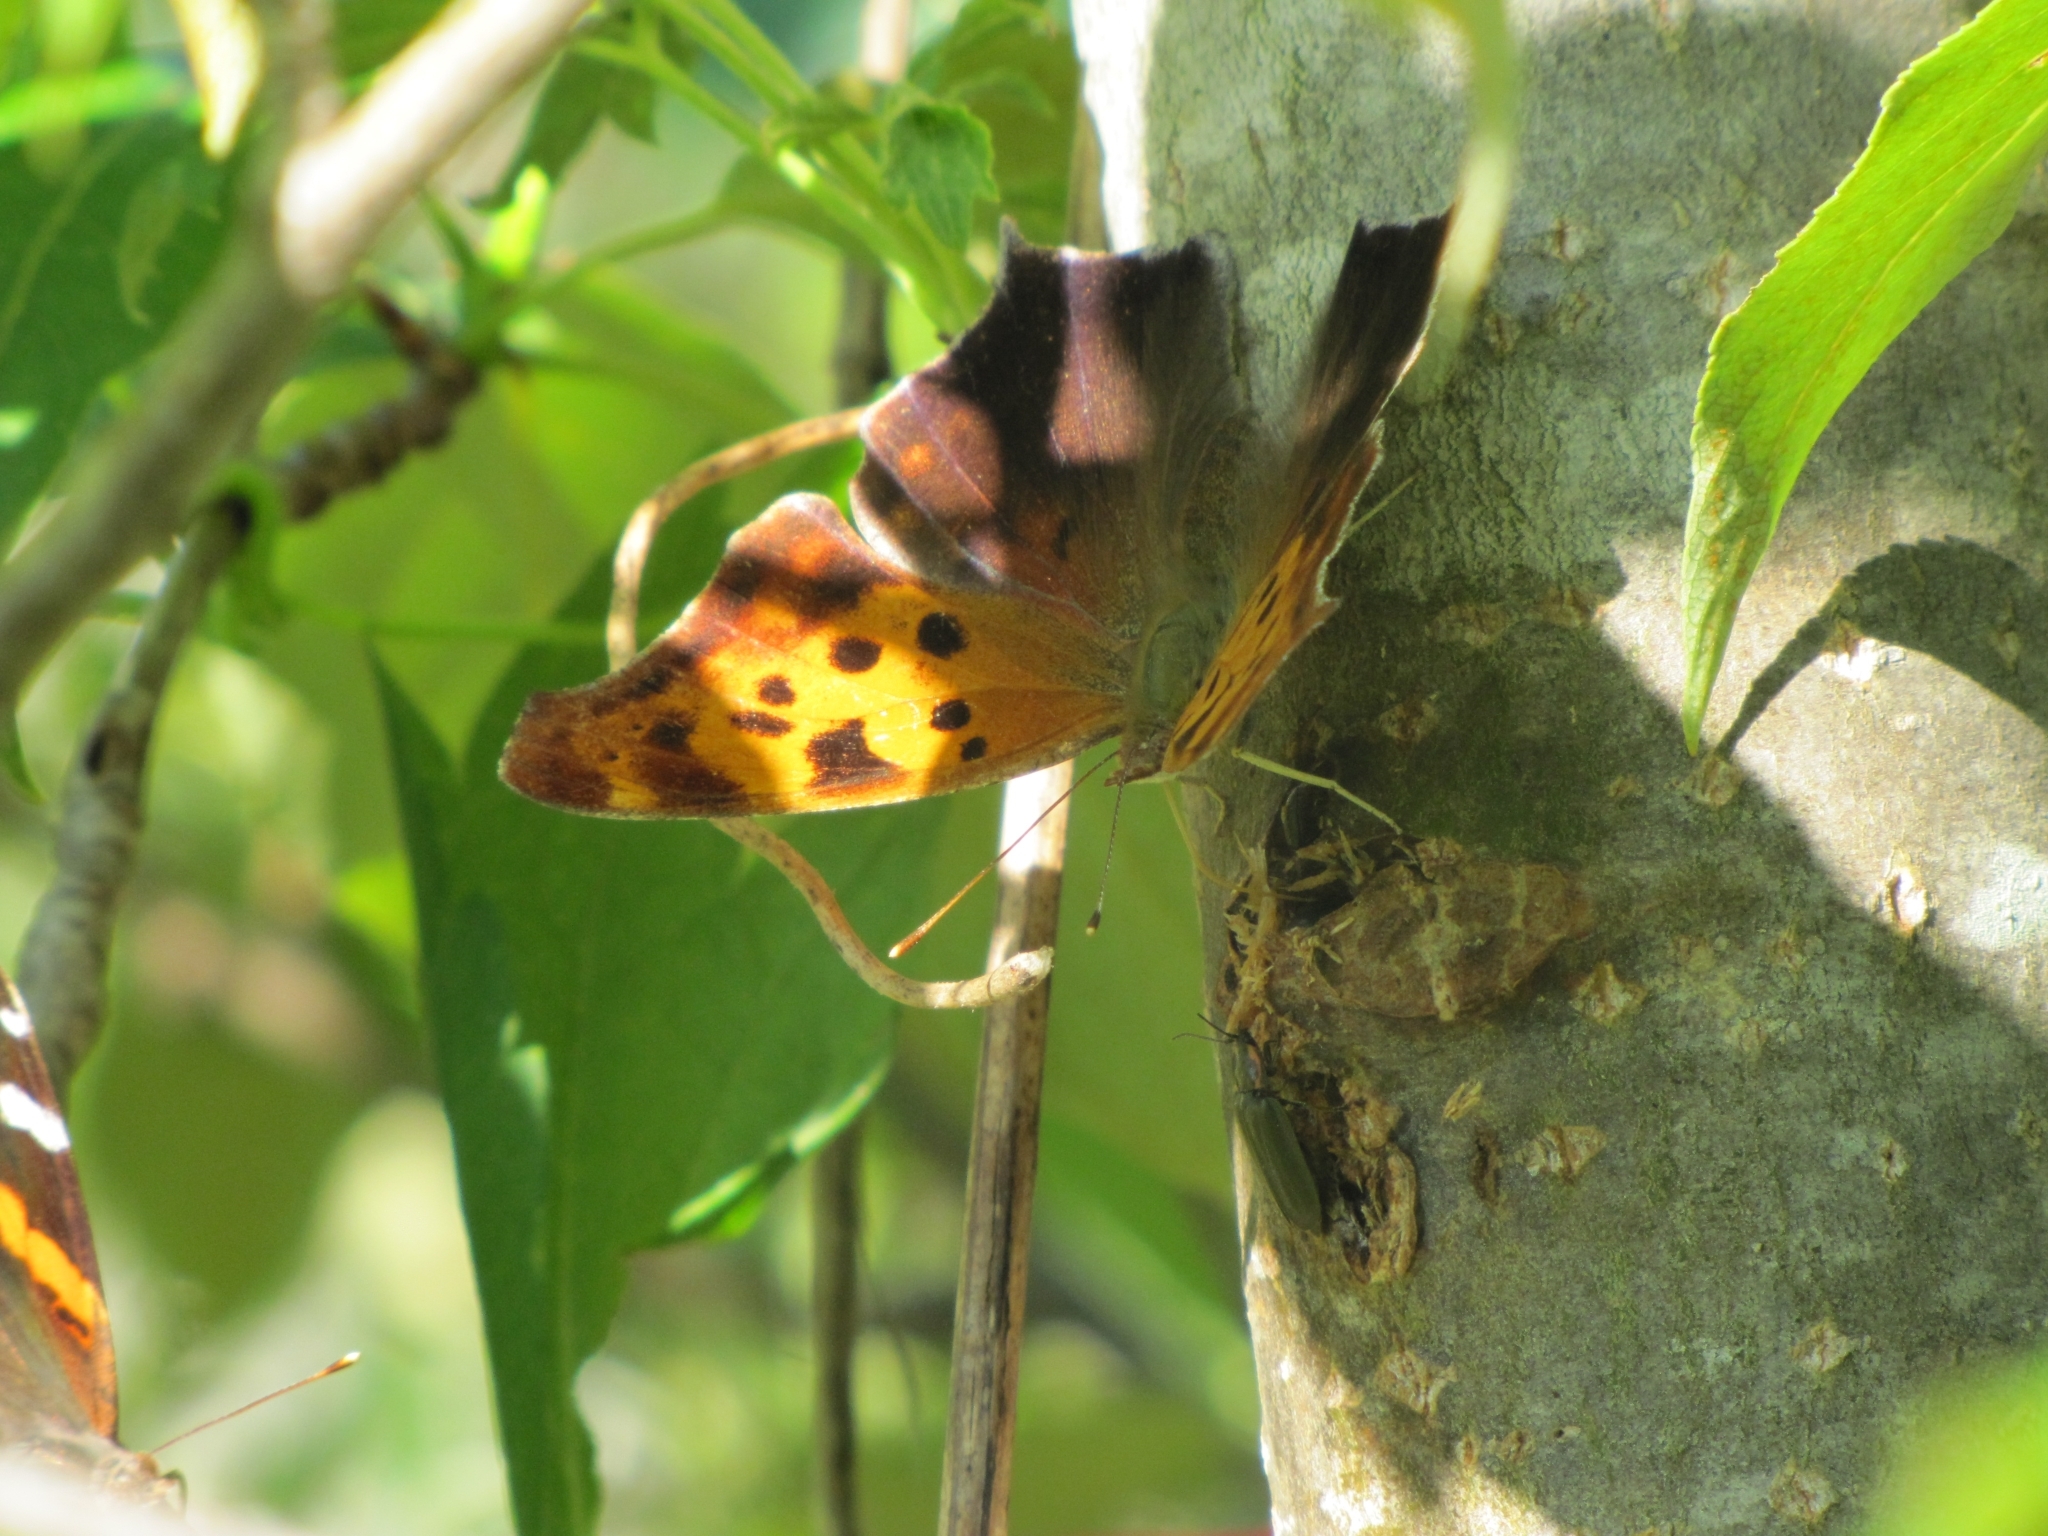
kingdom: Animalia
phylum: Arthropoda
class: Insecta
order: Lepidoptera
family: Nymphalidae
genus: Polygonia
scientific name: Polygonia interrogationis
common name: Question mark
